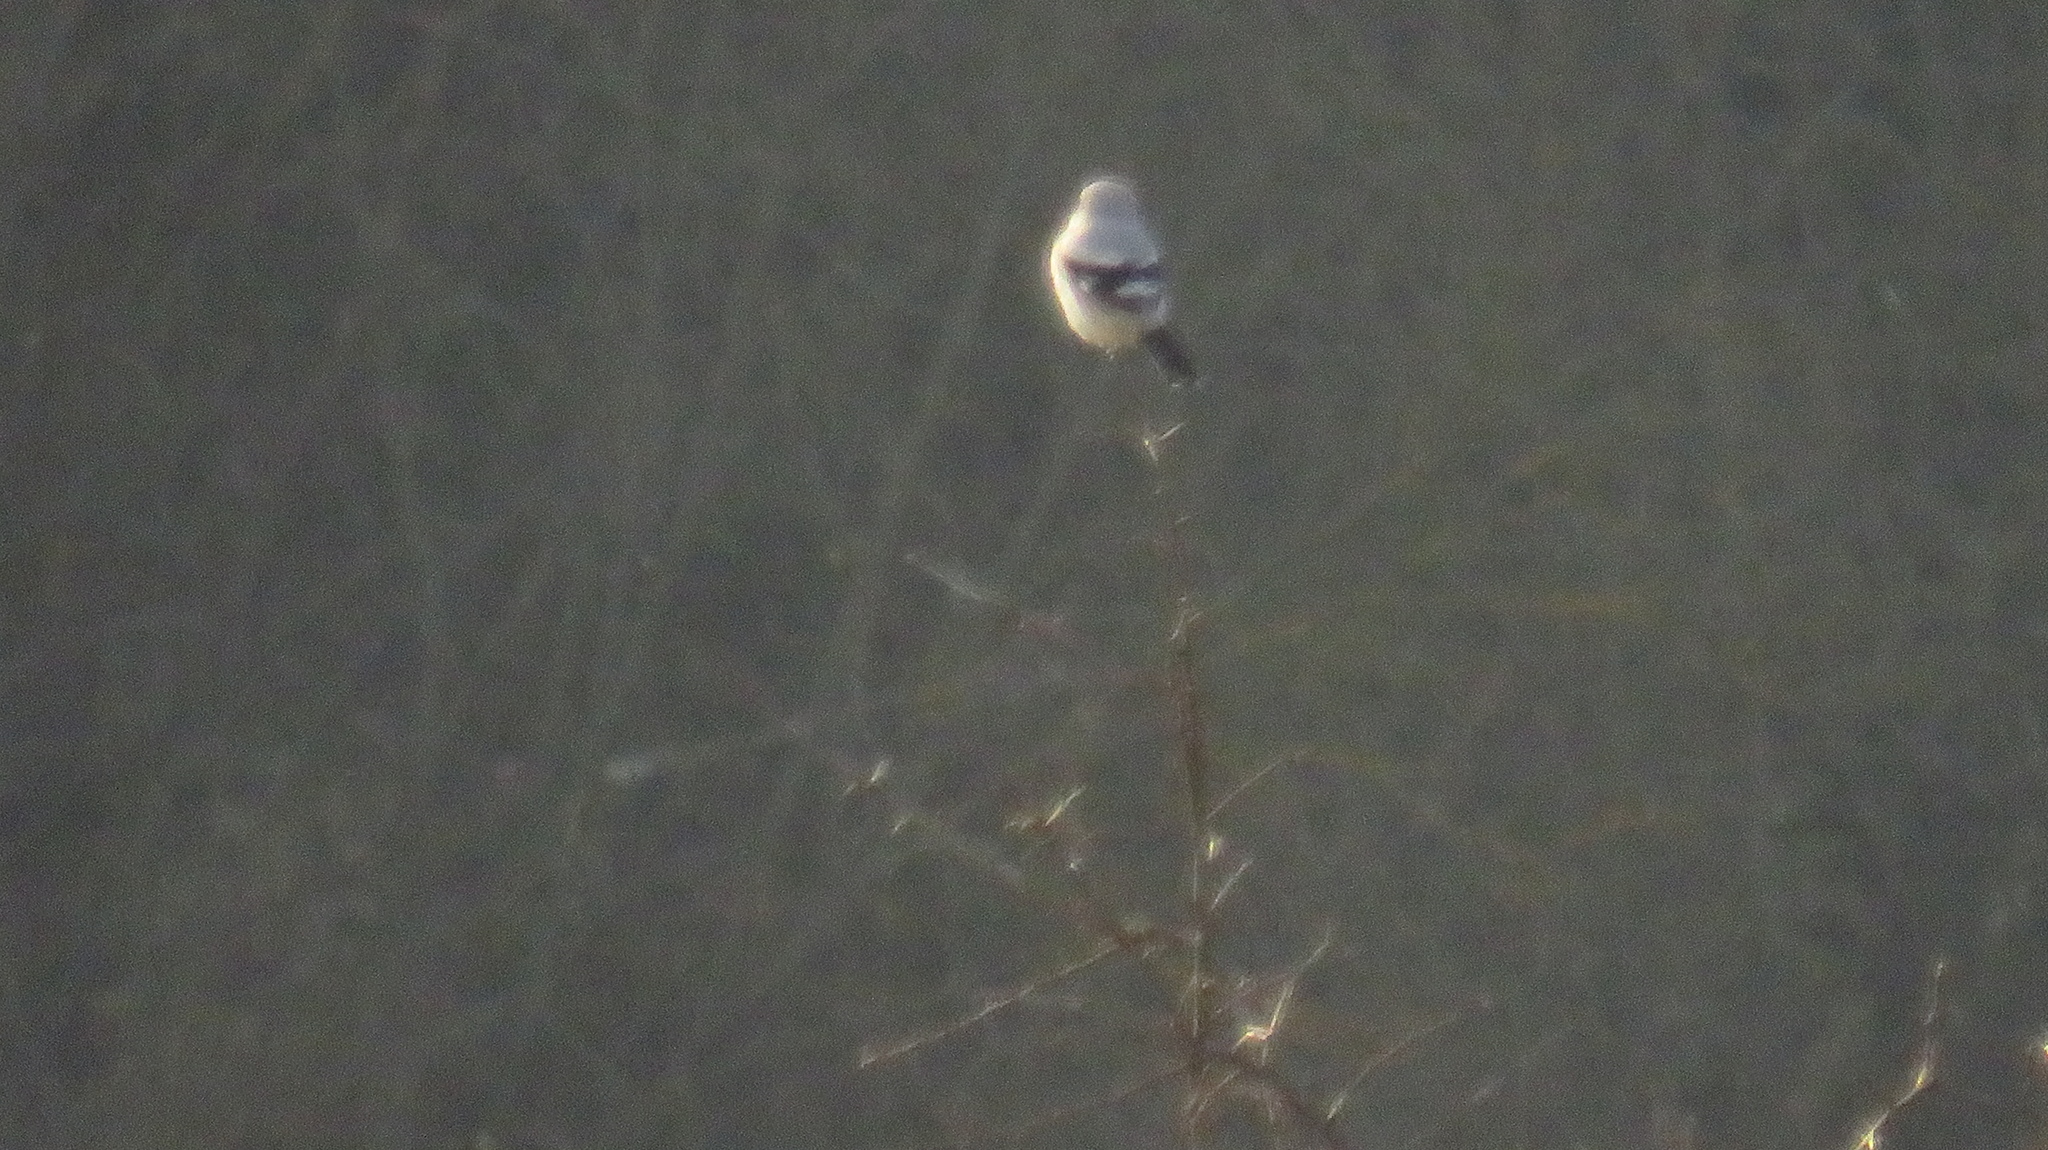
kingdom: Animalia
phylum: Chordata
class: Aves
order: Passeriformes
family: Laniidae
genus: Lanius
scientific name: Lanius excubitor
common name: Great grey shrike
